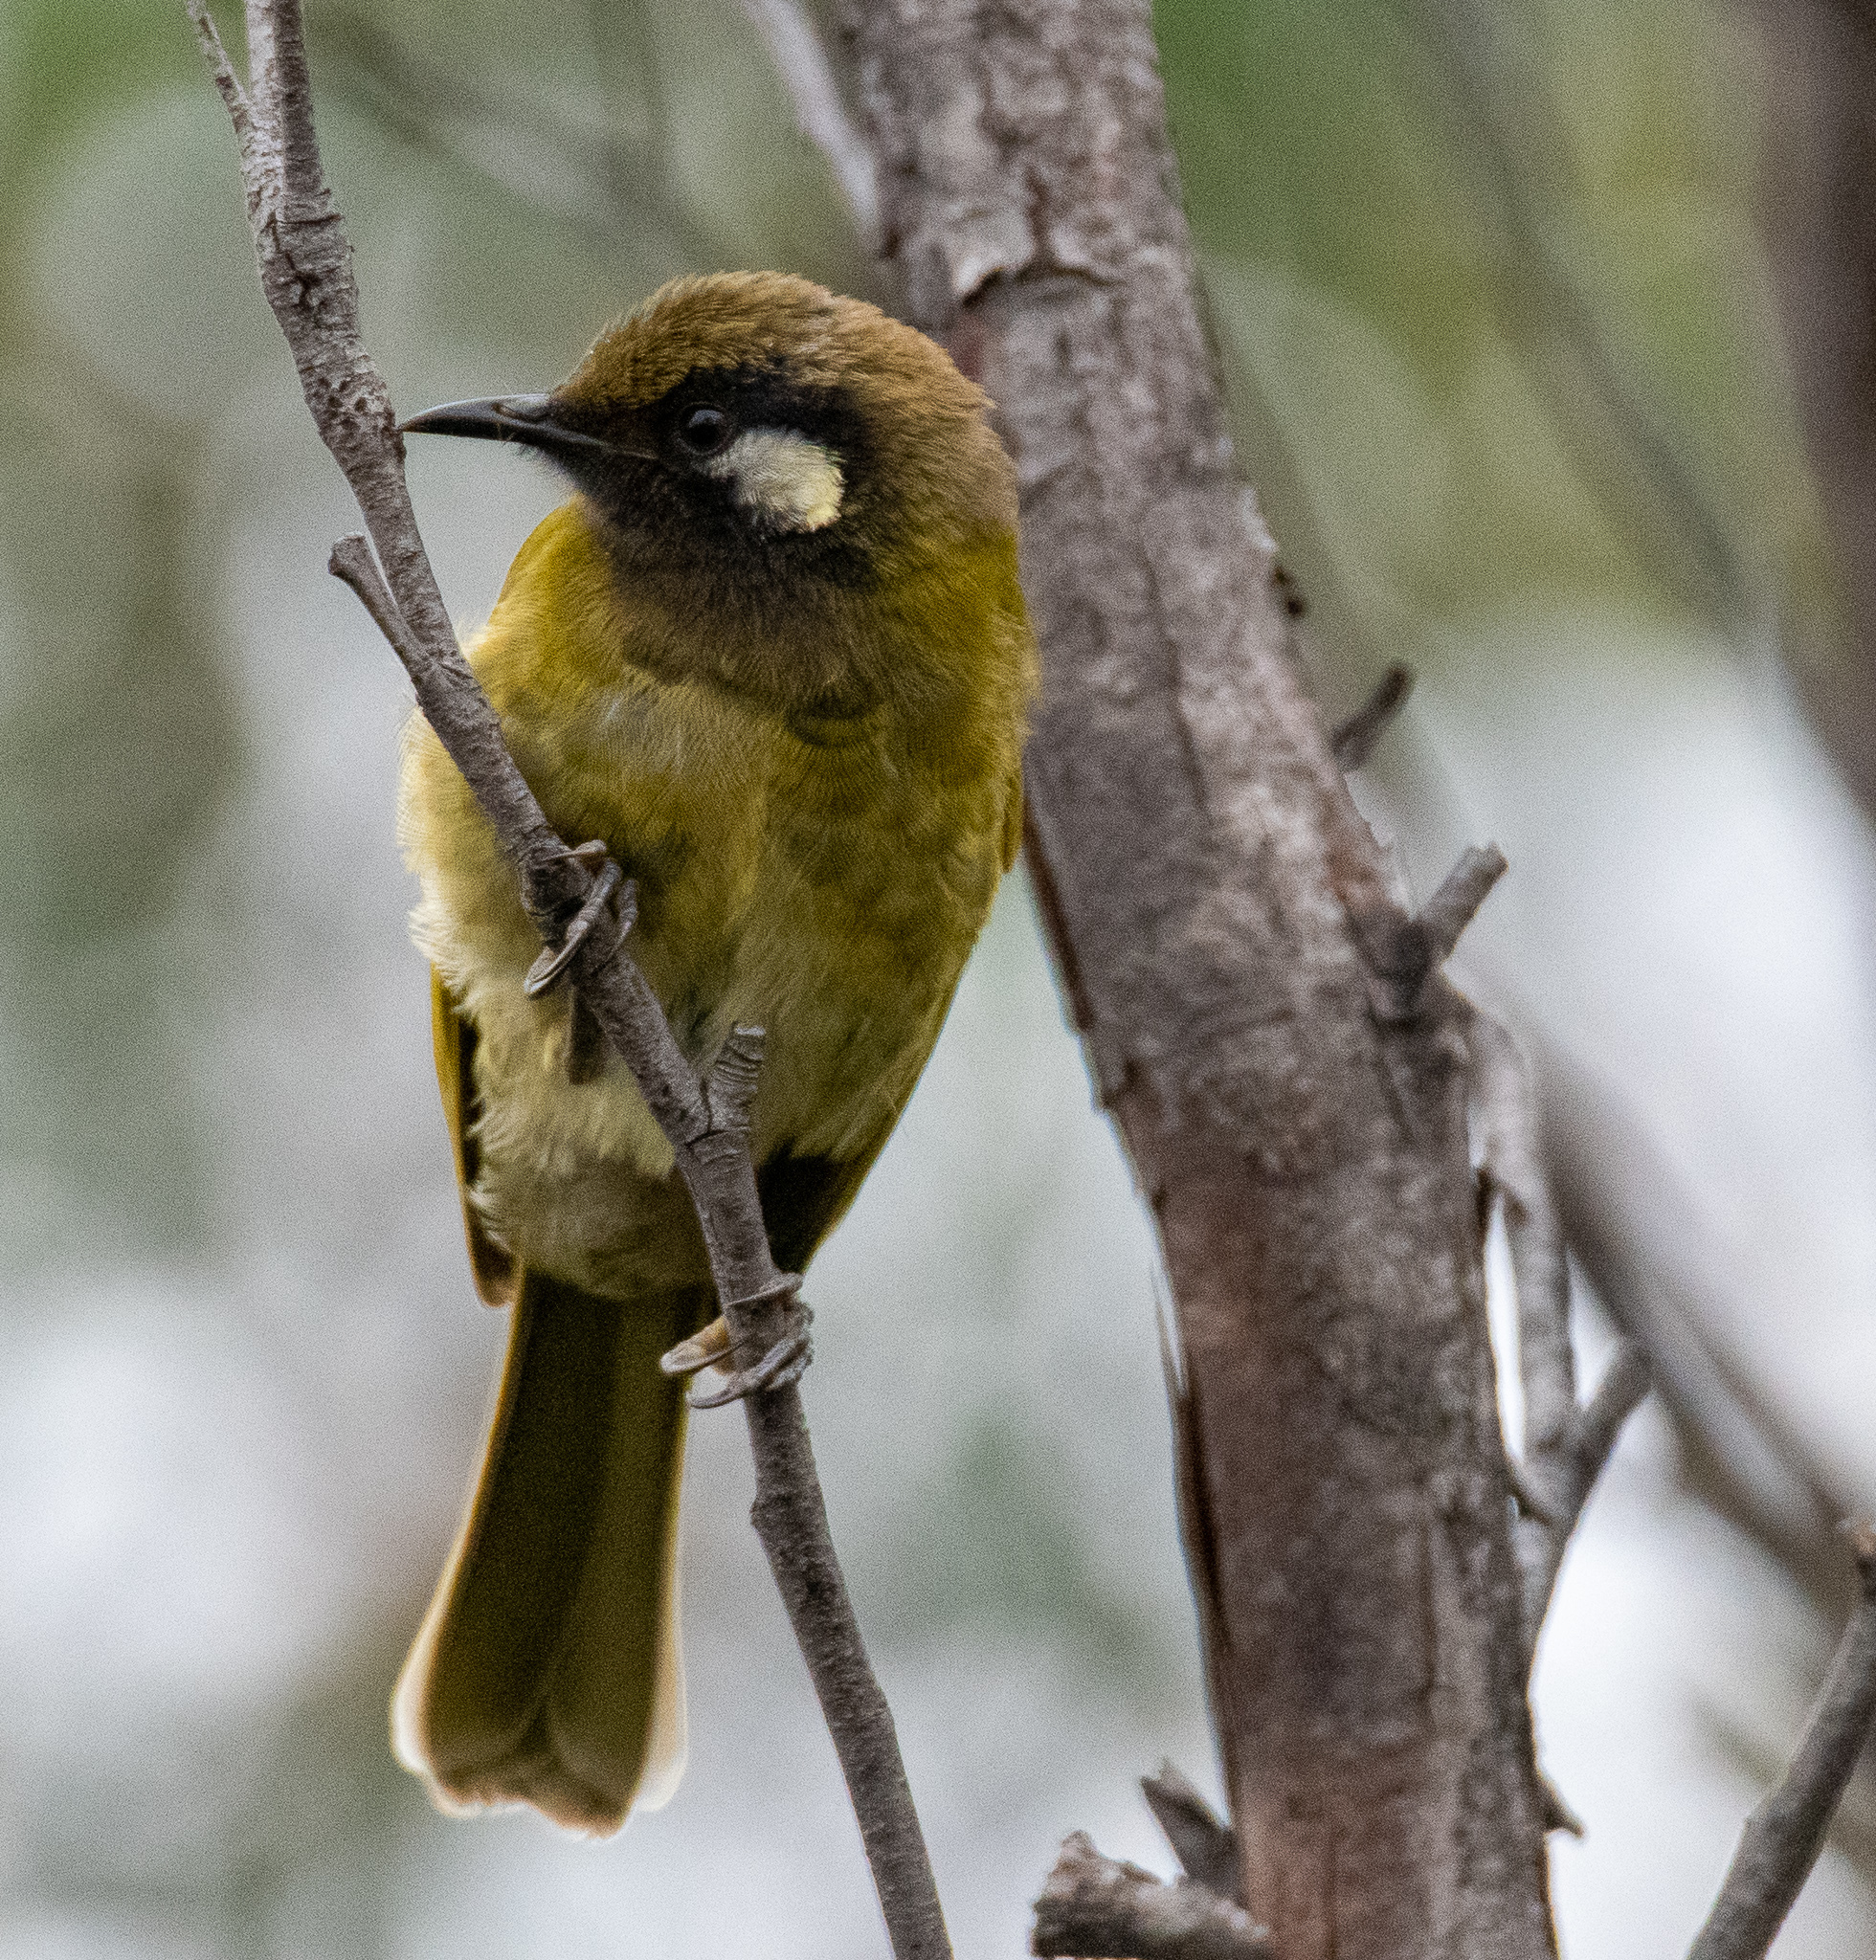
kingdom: Animalia
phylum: Chordata
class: Aves
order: Passeriformes
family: Meliphagidae
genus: Nesoptilotis
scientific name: Nesoptilotis leucotis
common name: White-eared honeyeater
